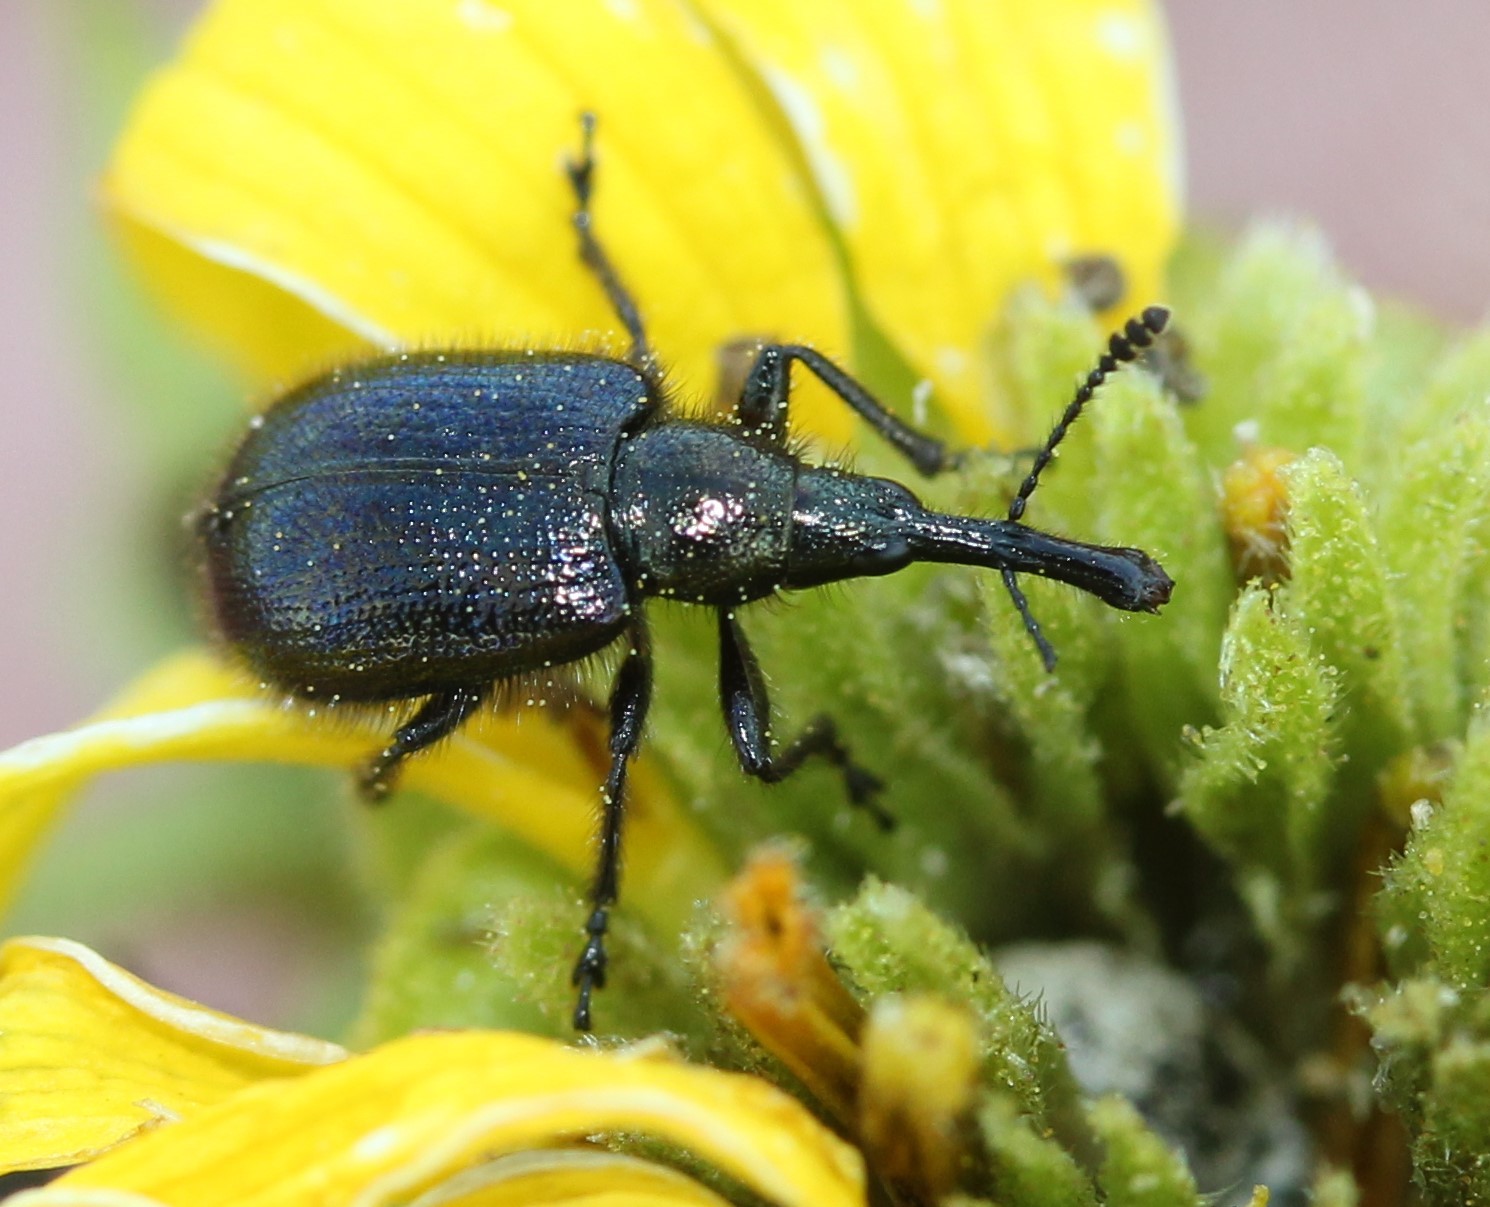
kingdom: Animalia
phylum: Arthropoda
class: Insecta
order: Coleoptera
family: Attelabidae
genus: Haplorhynchites
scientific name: Haplorhynchites aeneus
